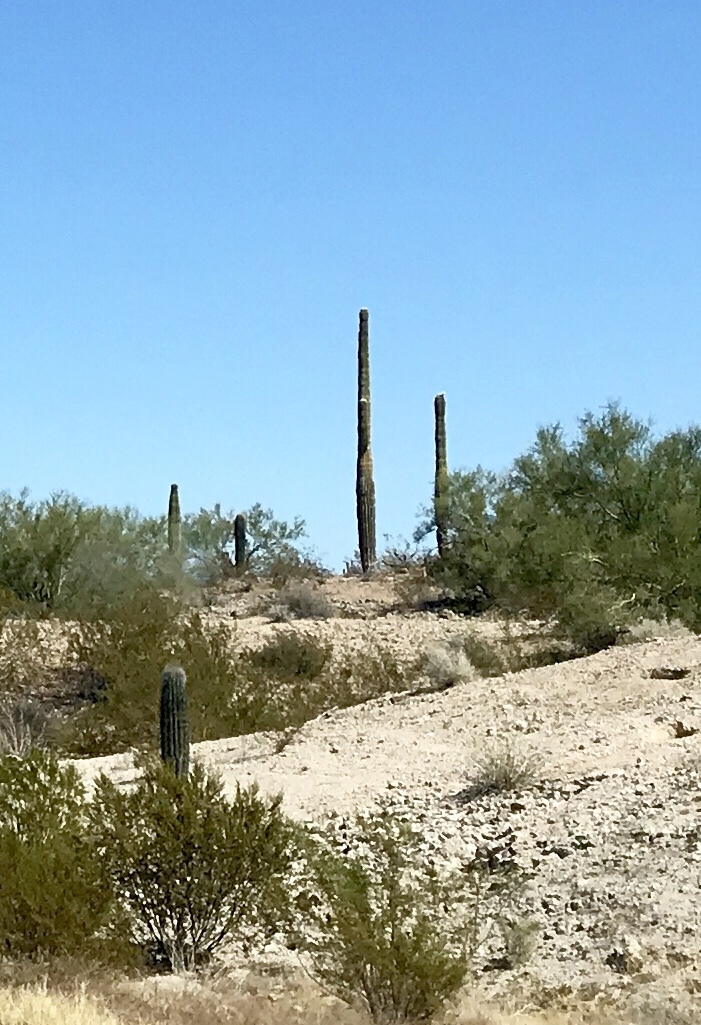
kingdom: Plantae
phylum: Tracheophyta
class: Magnoliopsida
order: Caryophyllales
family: Cactaceae
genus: Carnegiea
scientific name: Carnegiea gigantea
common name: Saguaro
